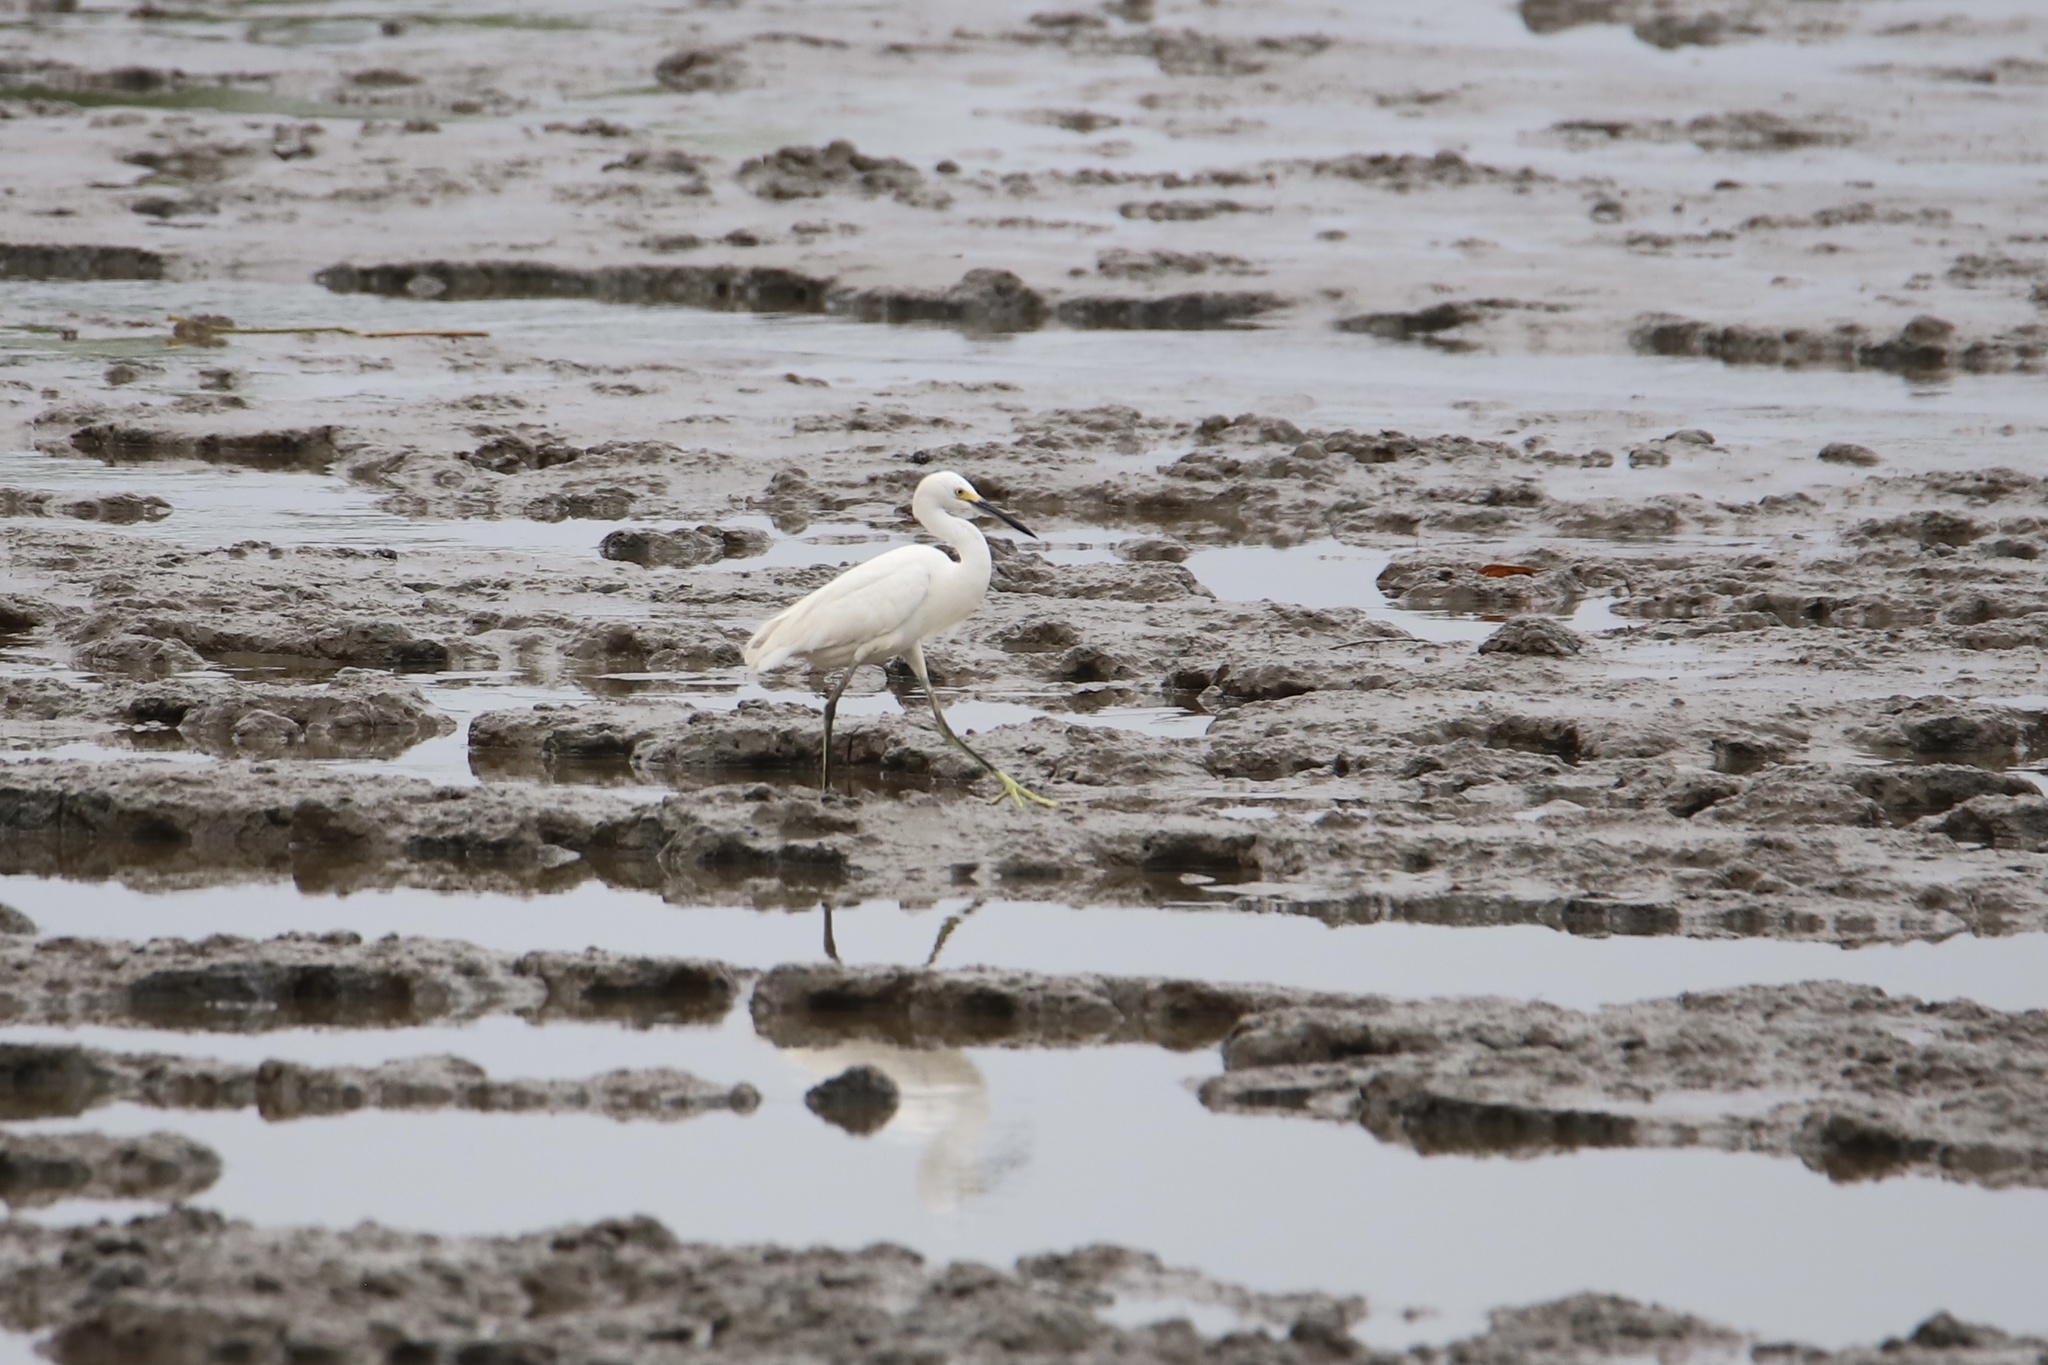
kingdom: Animalia
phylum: Chordata
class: Aves
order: Pelecaniformes
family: Ardeidae
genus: Egretta
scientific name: Egretta thula
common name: Snowy egret
